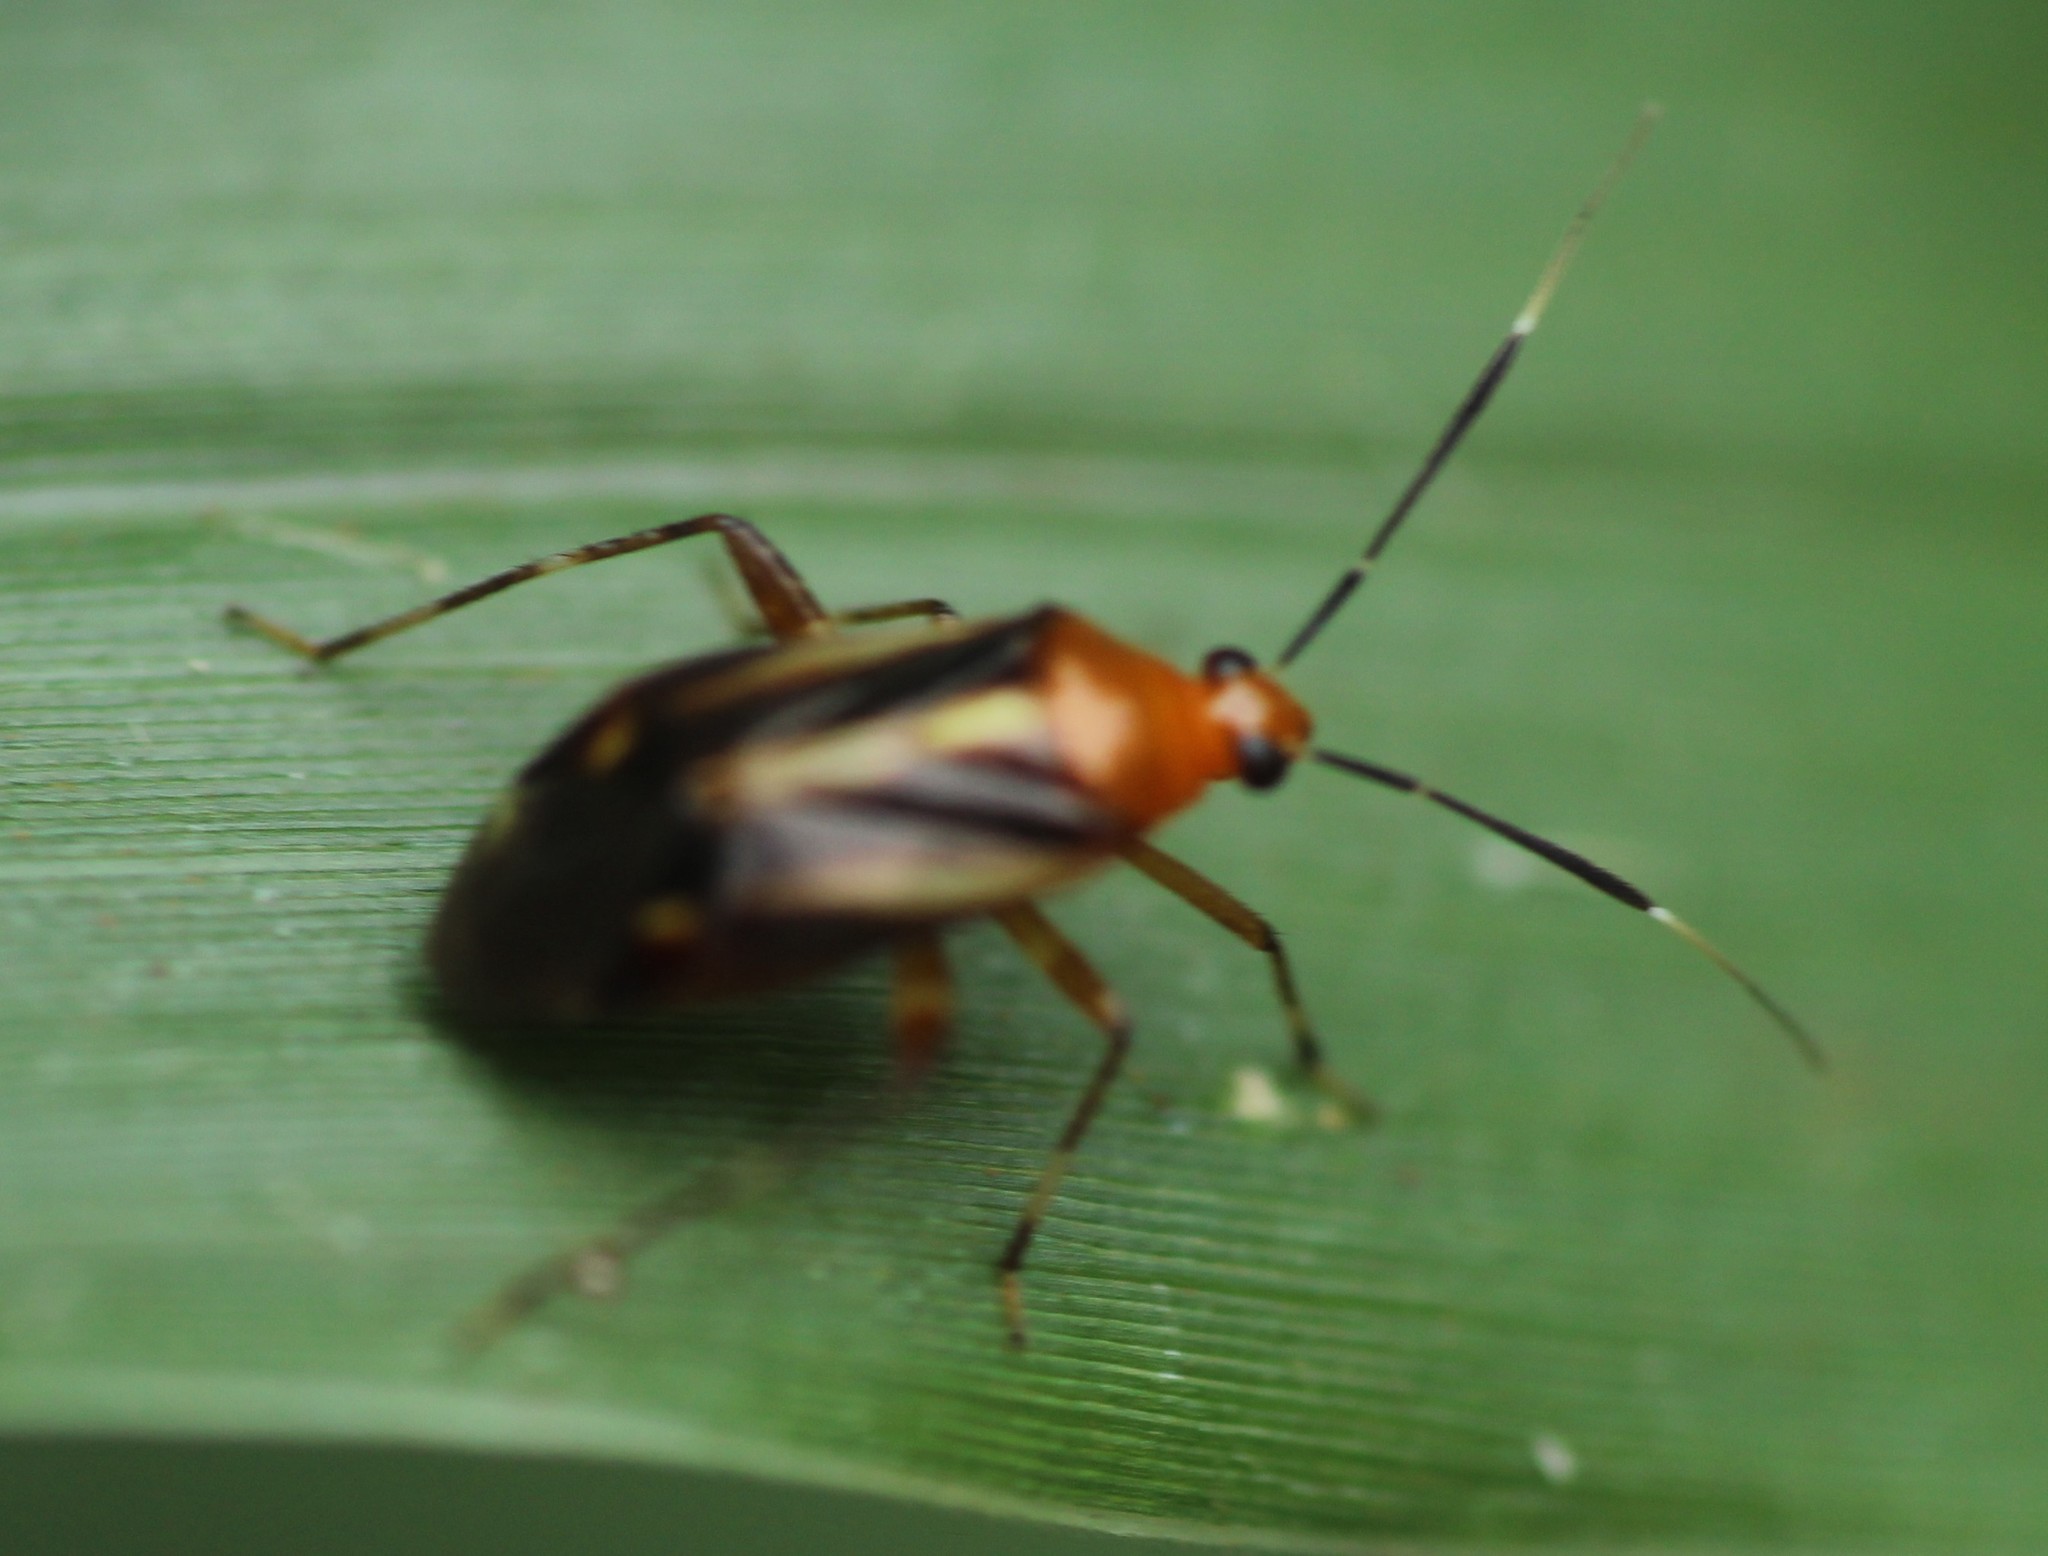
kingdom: Animalia
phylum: Arthropoda
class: Insecta
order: Hemiptera
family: Miridae
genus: Horciasinus
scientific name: Horciasinus signoreti
